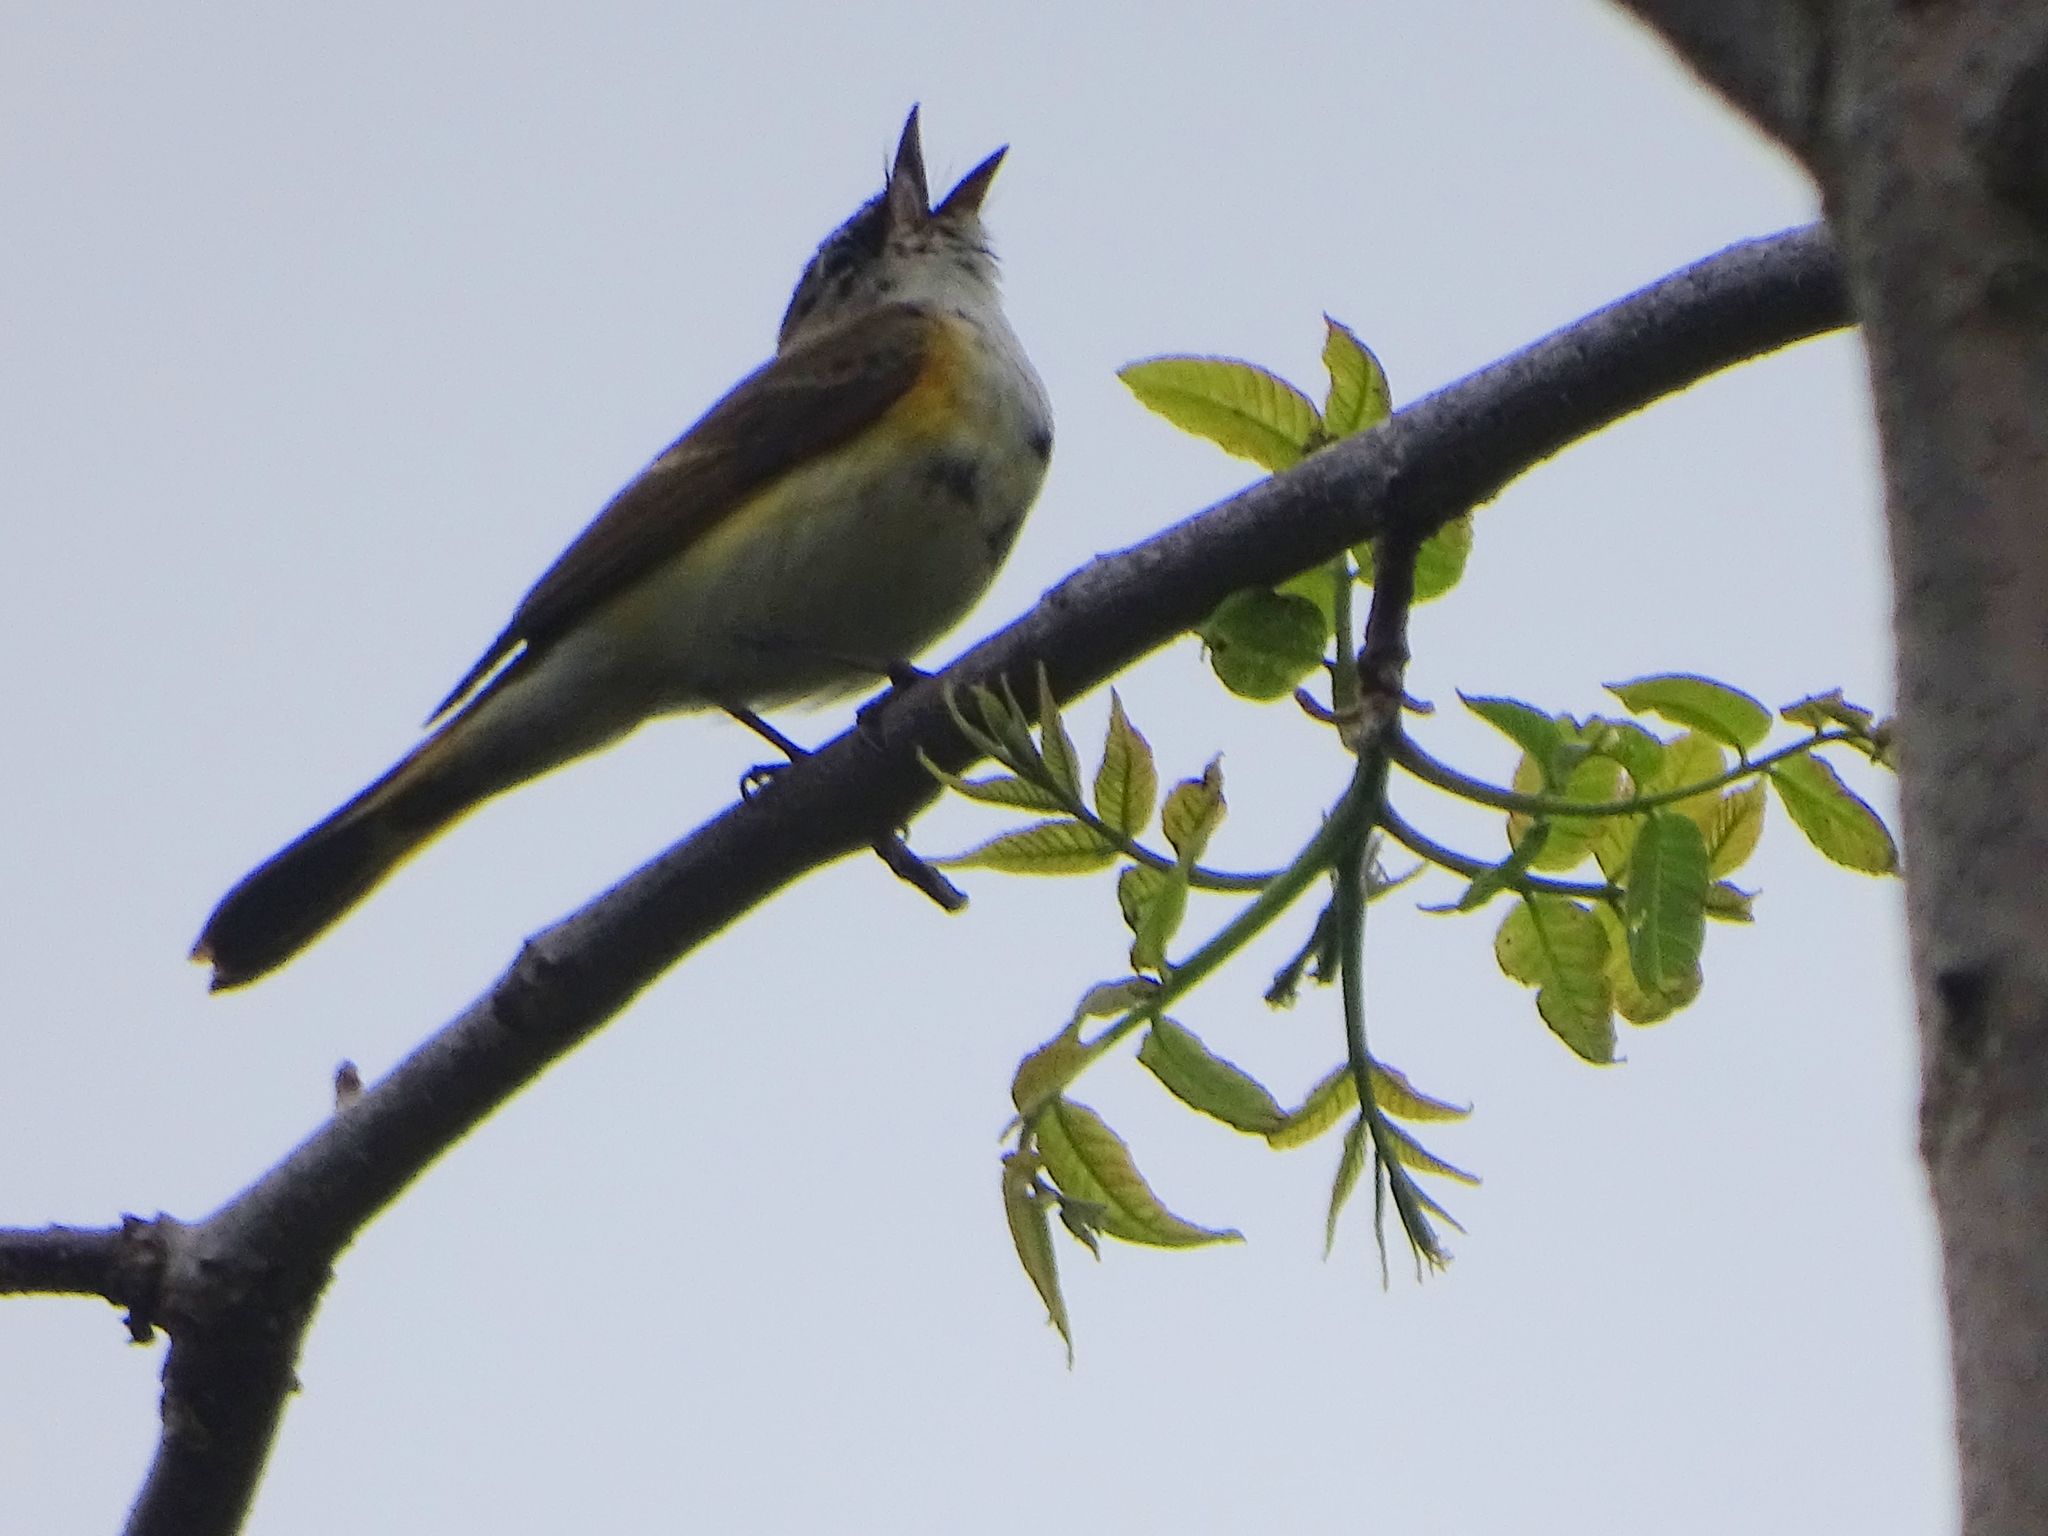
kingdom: Animalia
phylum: Chordata
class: Aves
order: Passeriformes
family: Parulidae
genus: Setophaga
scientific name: Setophaga ruticilla
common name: American redstart
